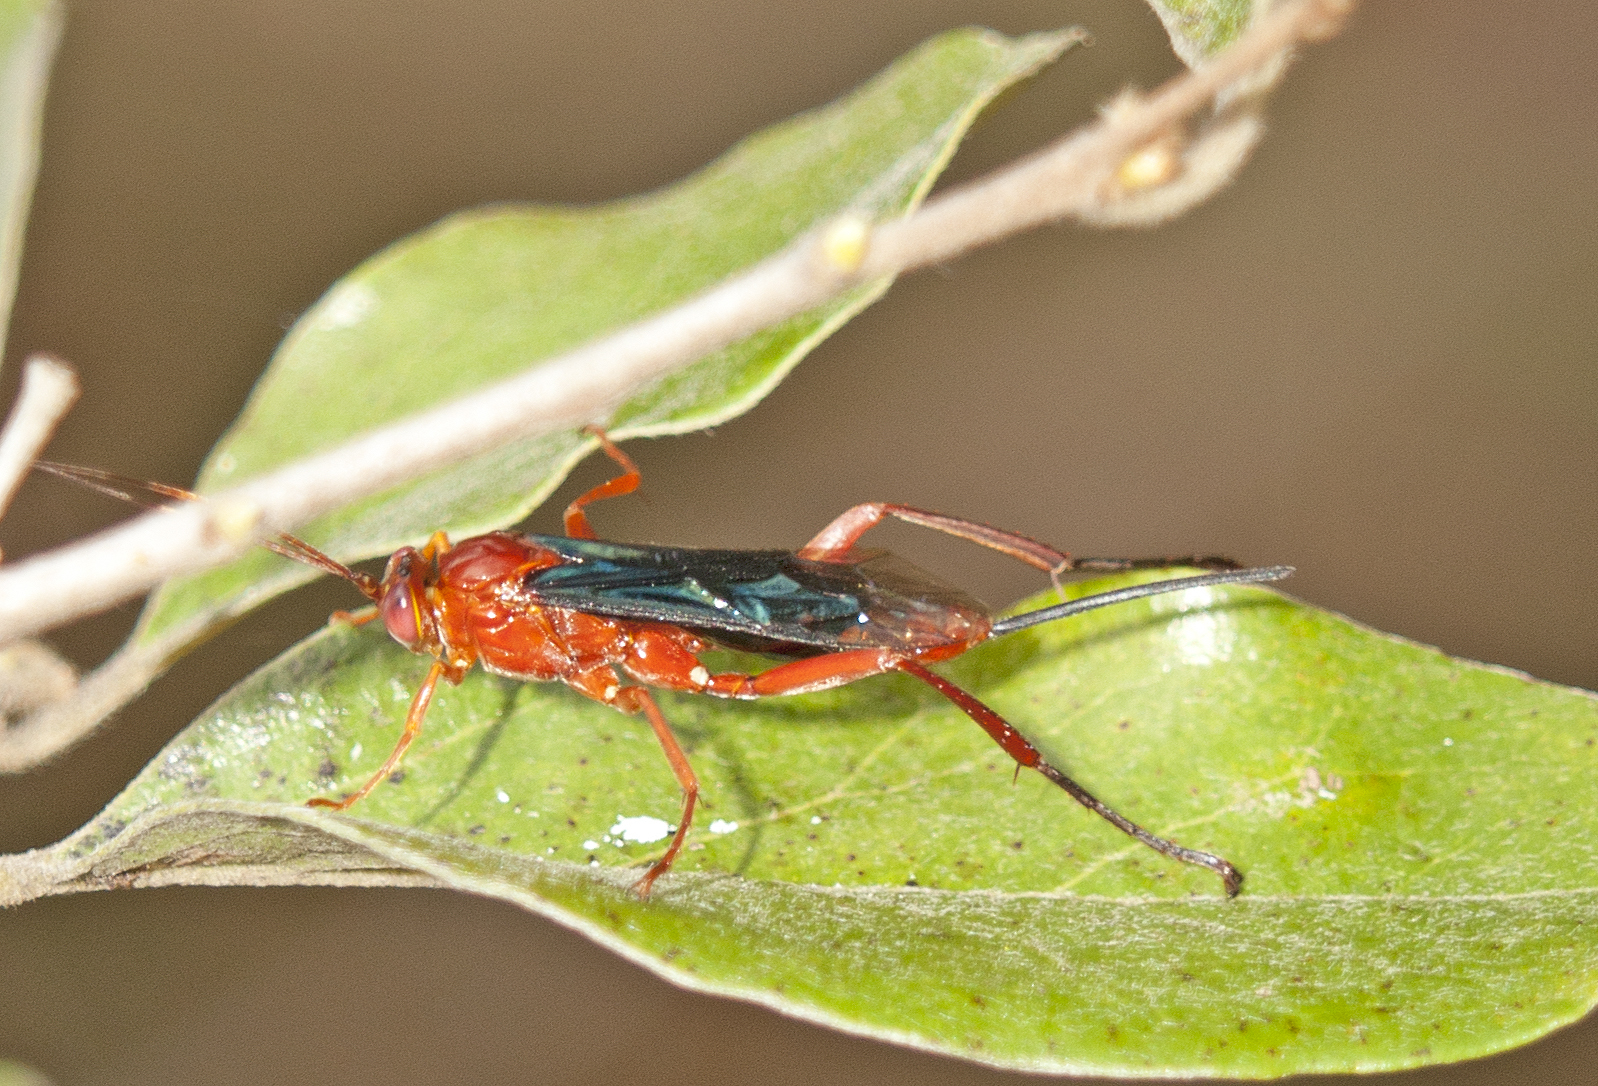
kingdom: Animalia
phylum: Arthropoda
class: Insecta
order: Hymenoptera
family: Ichneumonidae
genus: Lissopimpla
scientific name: Lissopimpla excelsa
